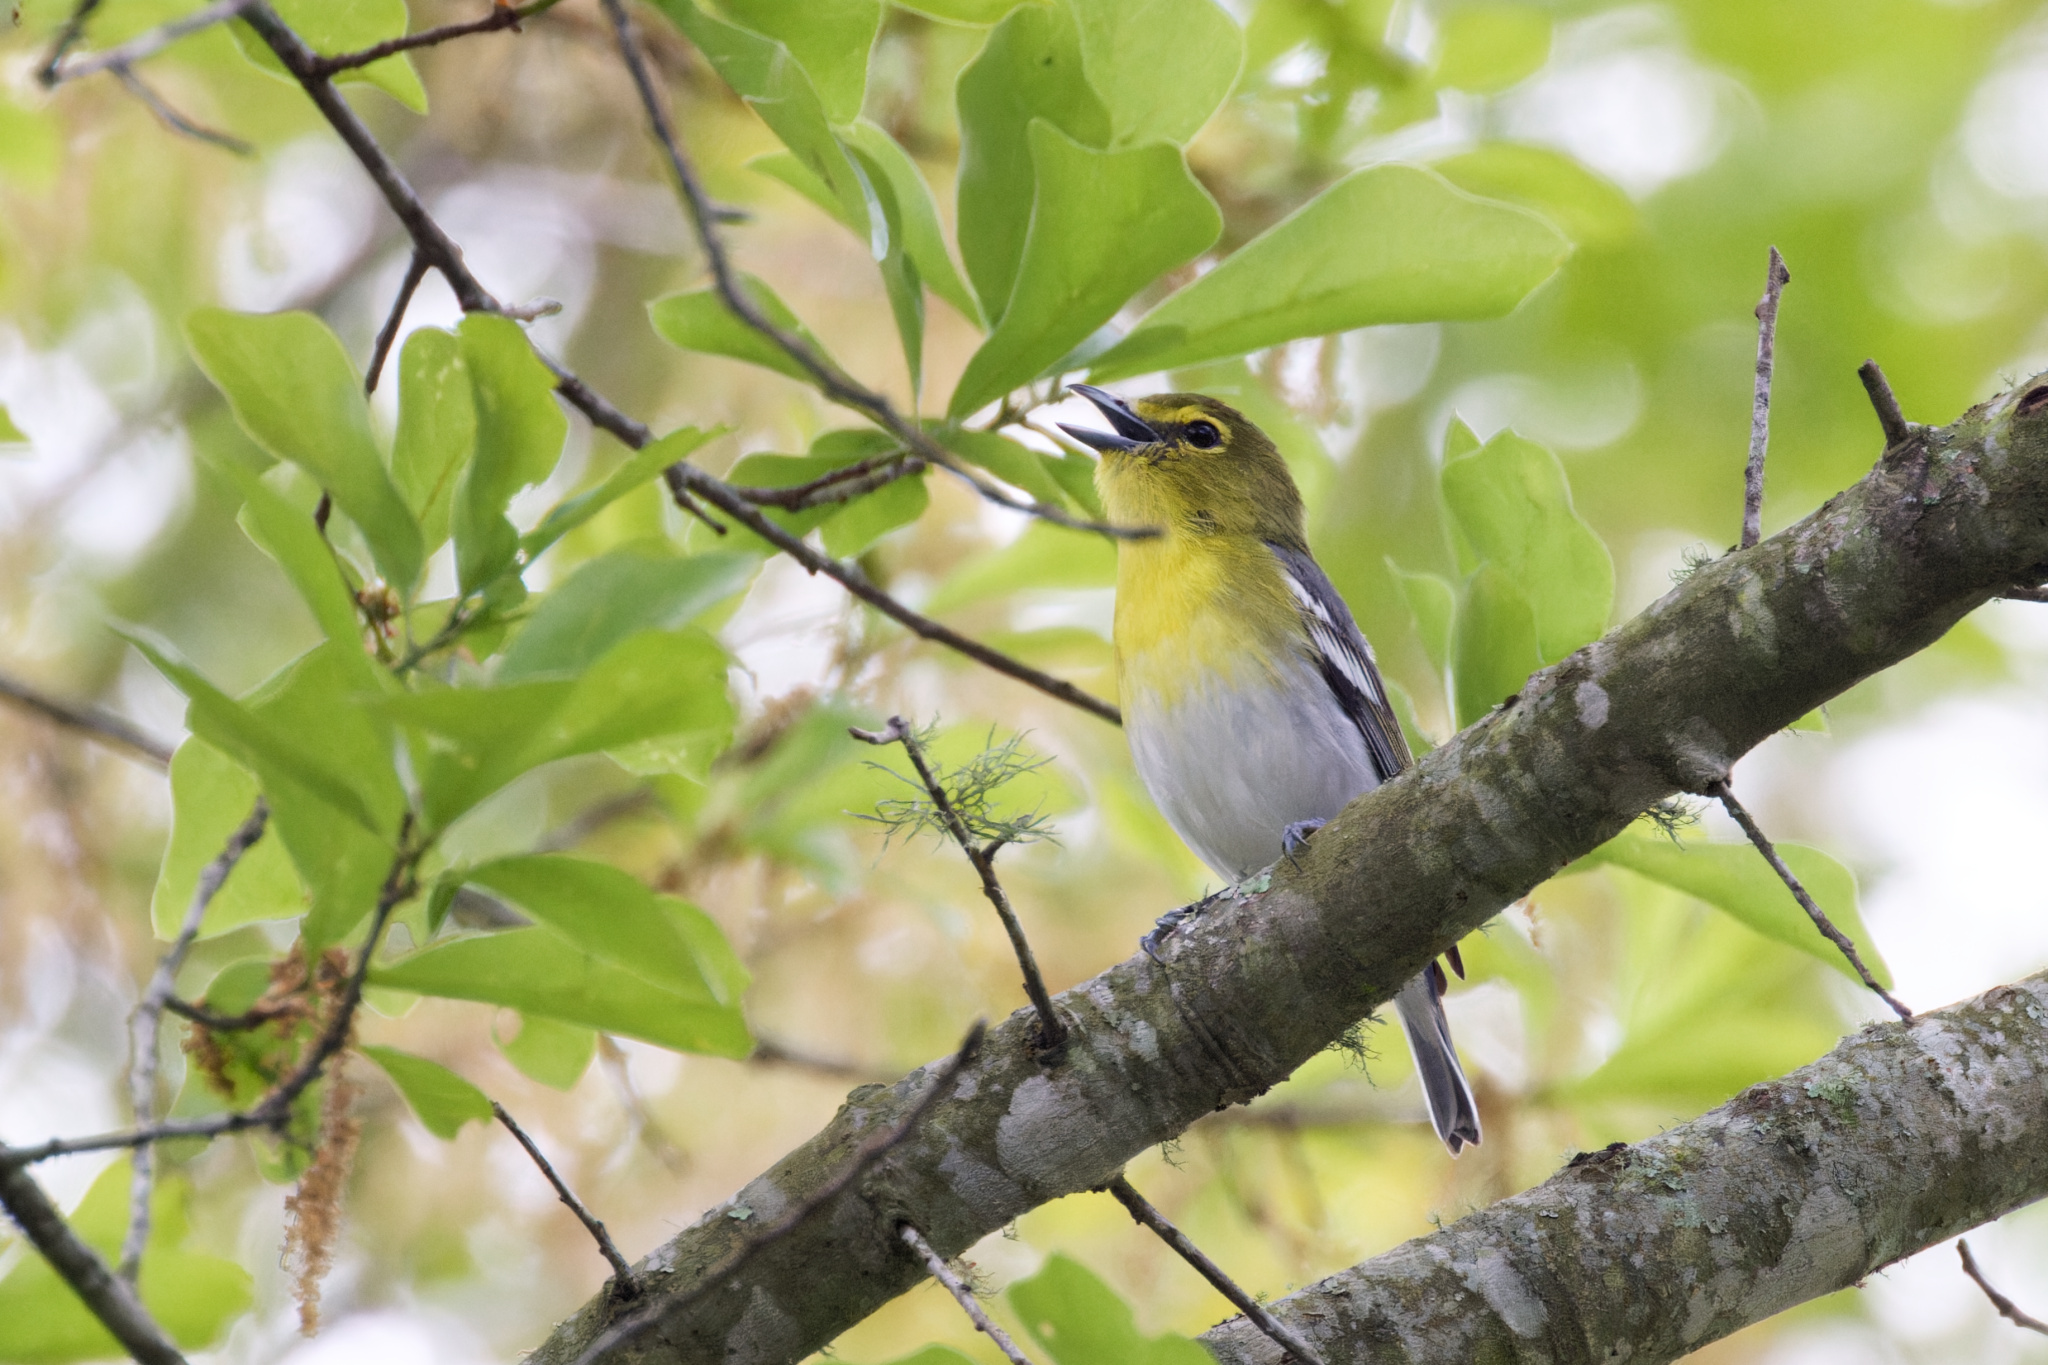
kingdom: Animalia
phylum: Chordata
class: Aves
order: Passeriformes
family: Vireonidae
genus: Vireo
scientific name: Vireo flavifrons
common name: Yellow-throated vireo
